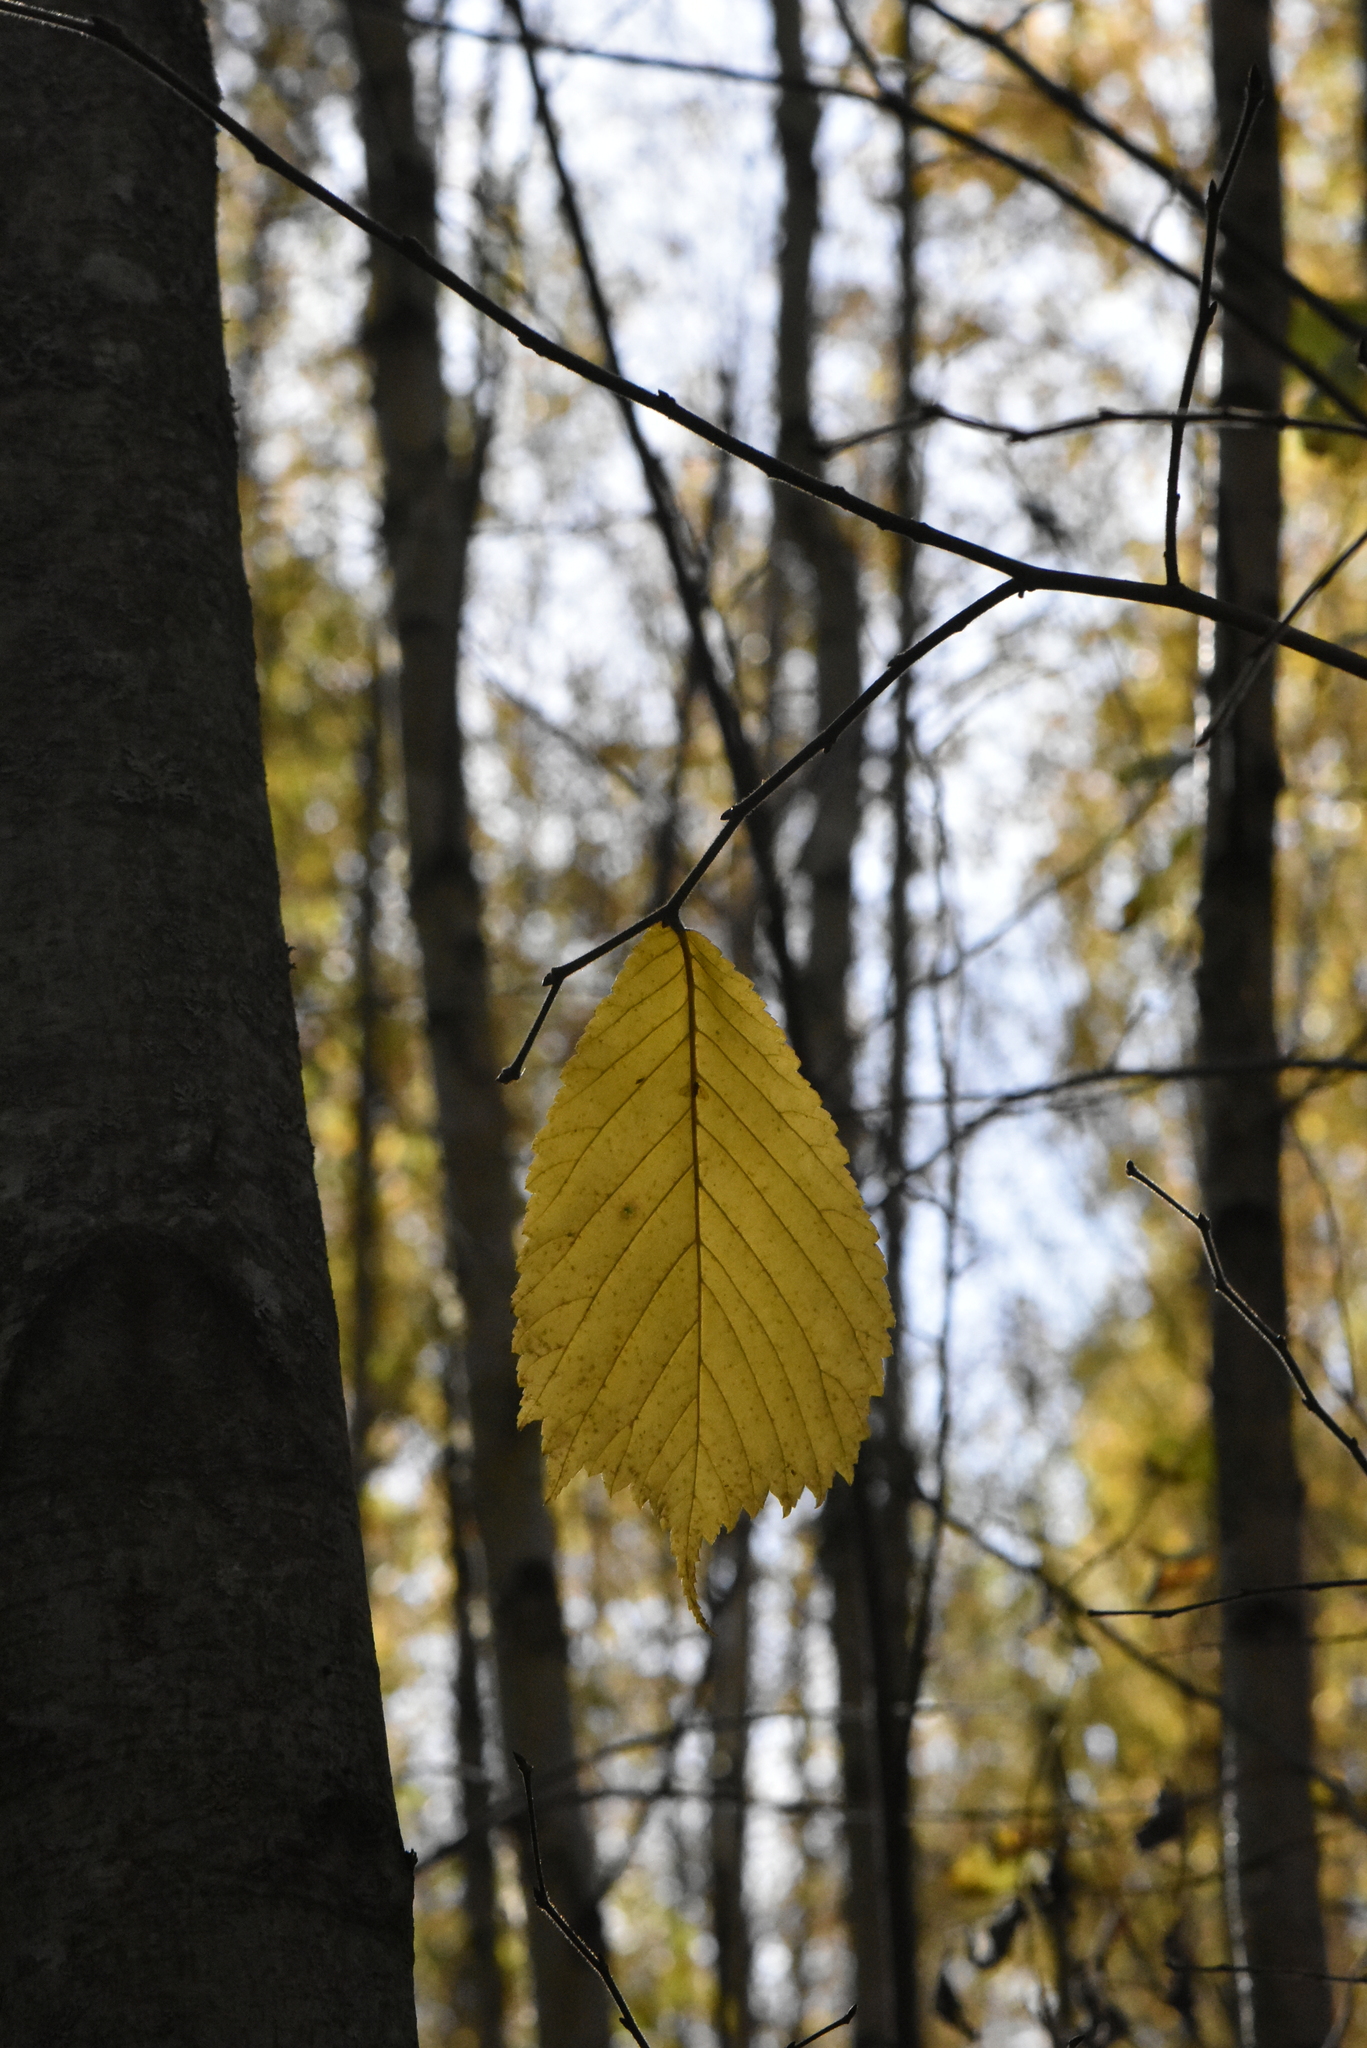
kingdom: Plantae
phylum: Tracheophyta
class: Magnoliopsida
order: Rosales
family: Ulmaceae
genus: Ulmus
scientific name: Ulmus glabra
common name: Wych elm
